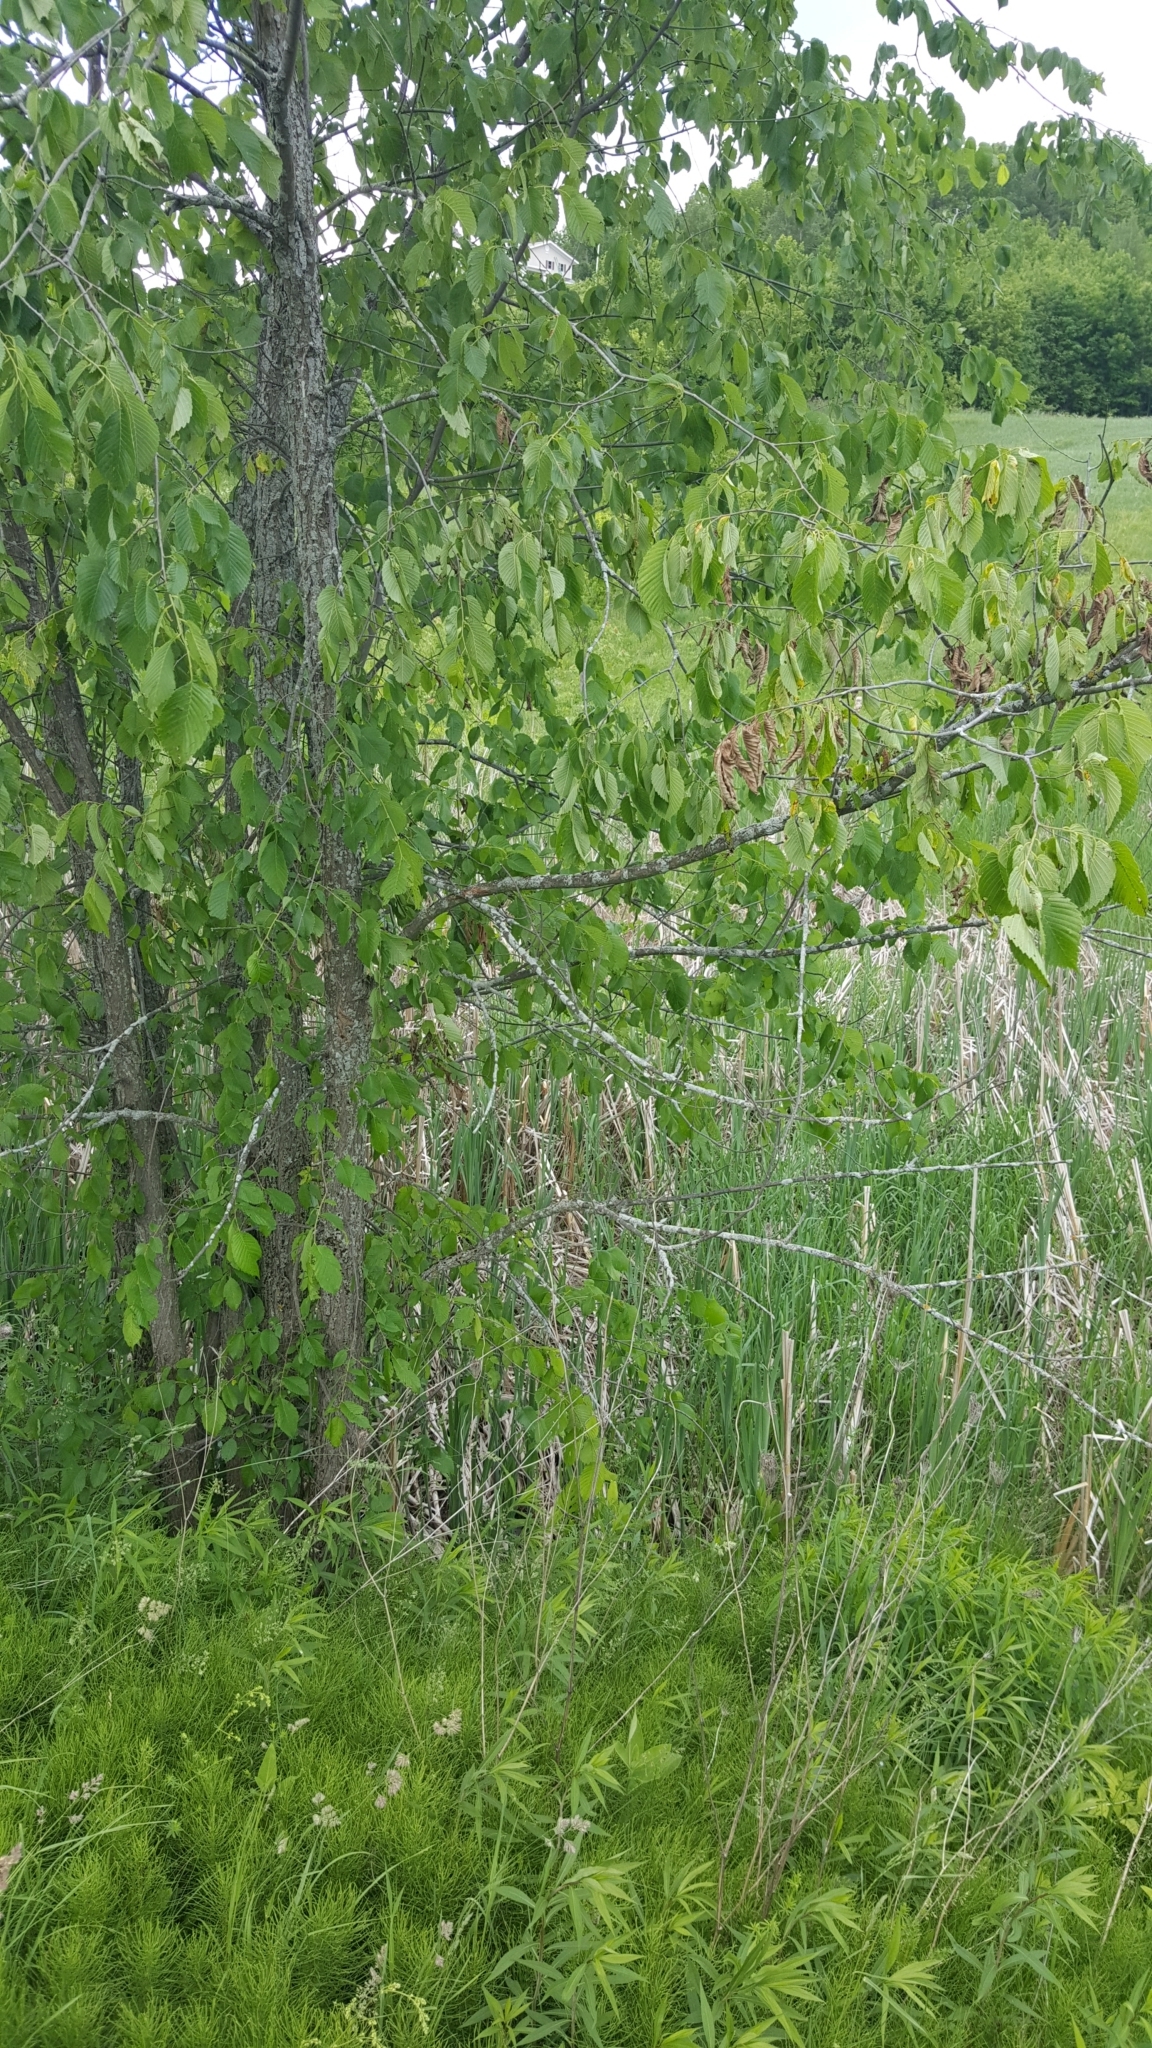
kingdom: Plantae
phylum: Tracheophyta
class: Magnoliopsida
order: Rosales
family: Ulmaceae
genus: Ulmus
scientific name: Ulmus americana
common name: American elm
